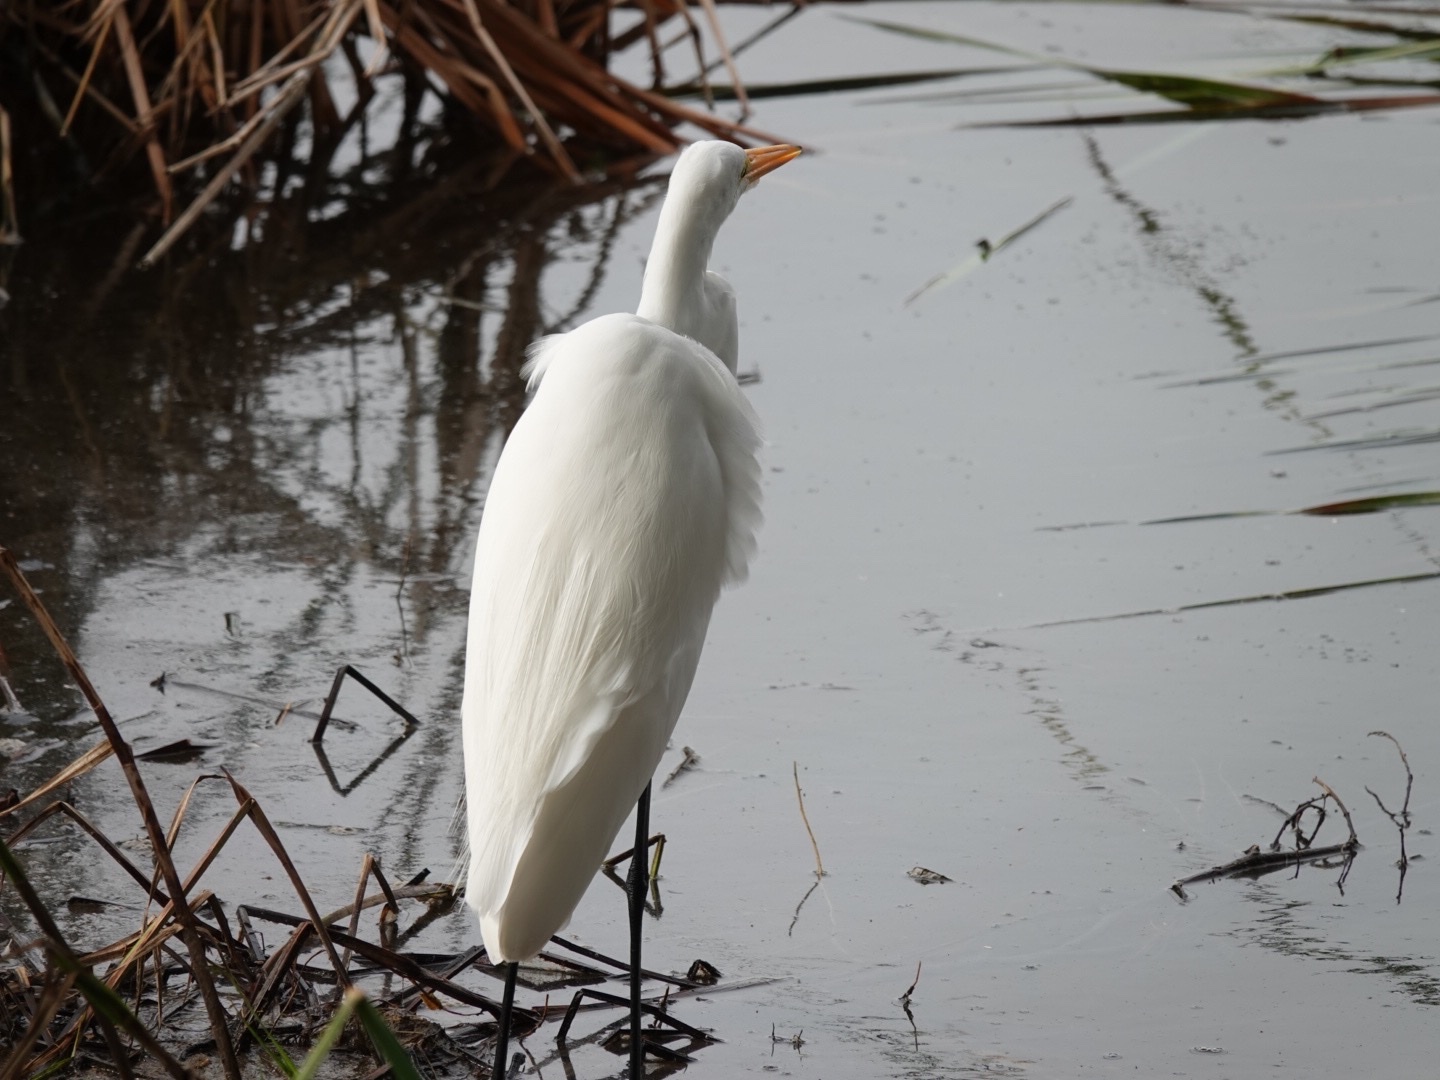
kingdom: Animalia
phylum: Chordata
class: Aves
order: Pelecaniformes
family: Ardeidae
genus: Ardea
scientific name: Ardea alba
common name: Great egret
